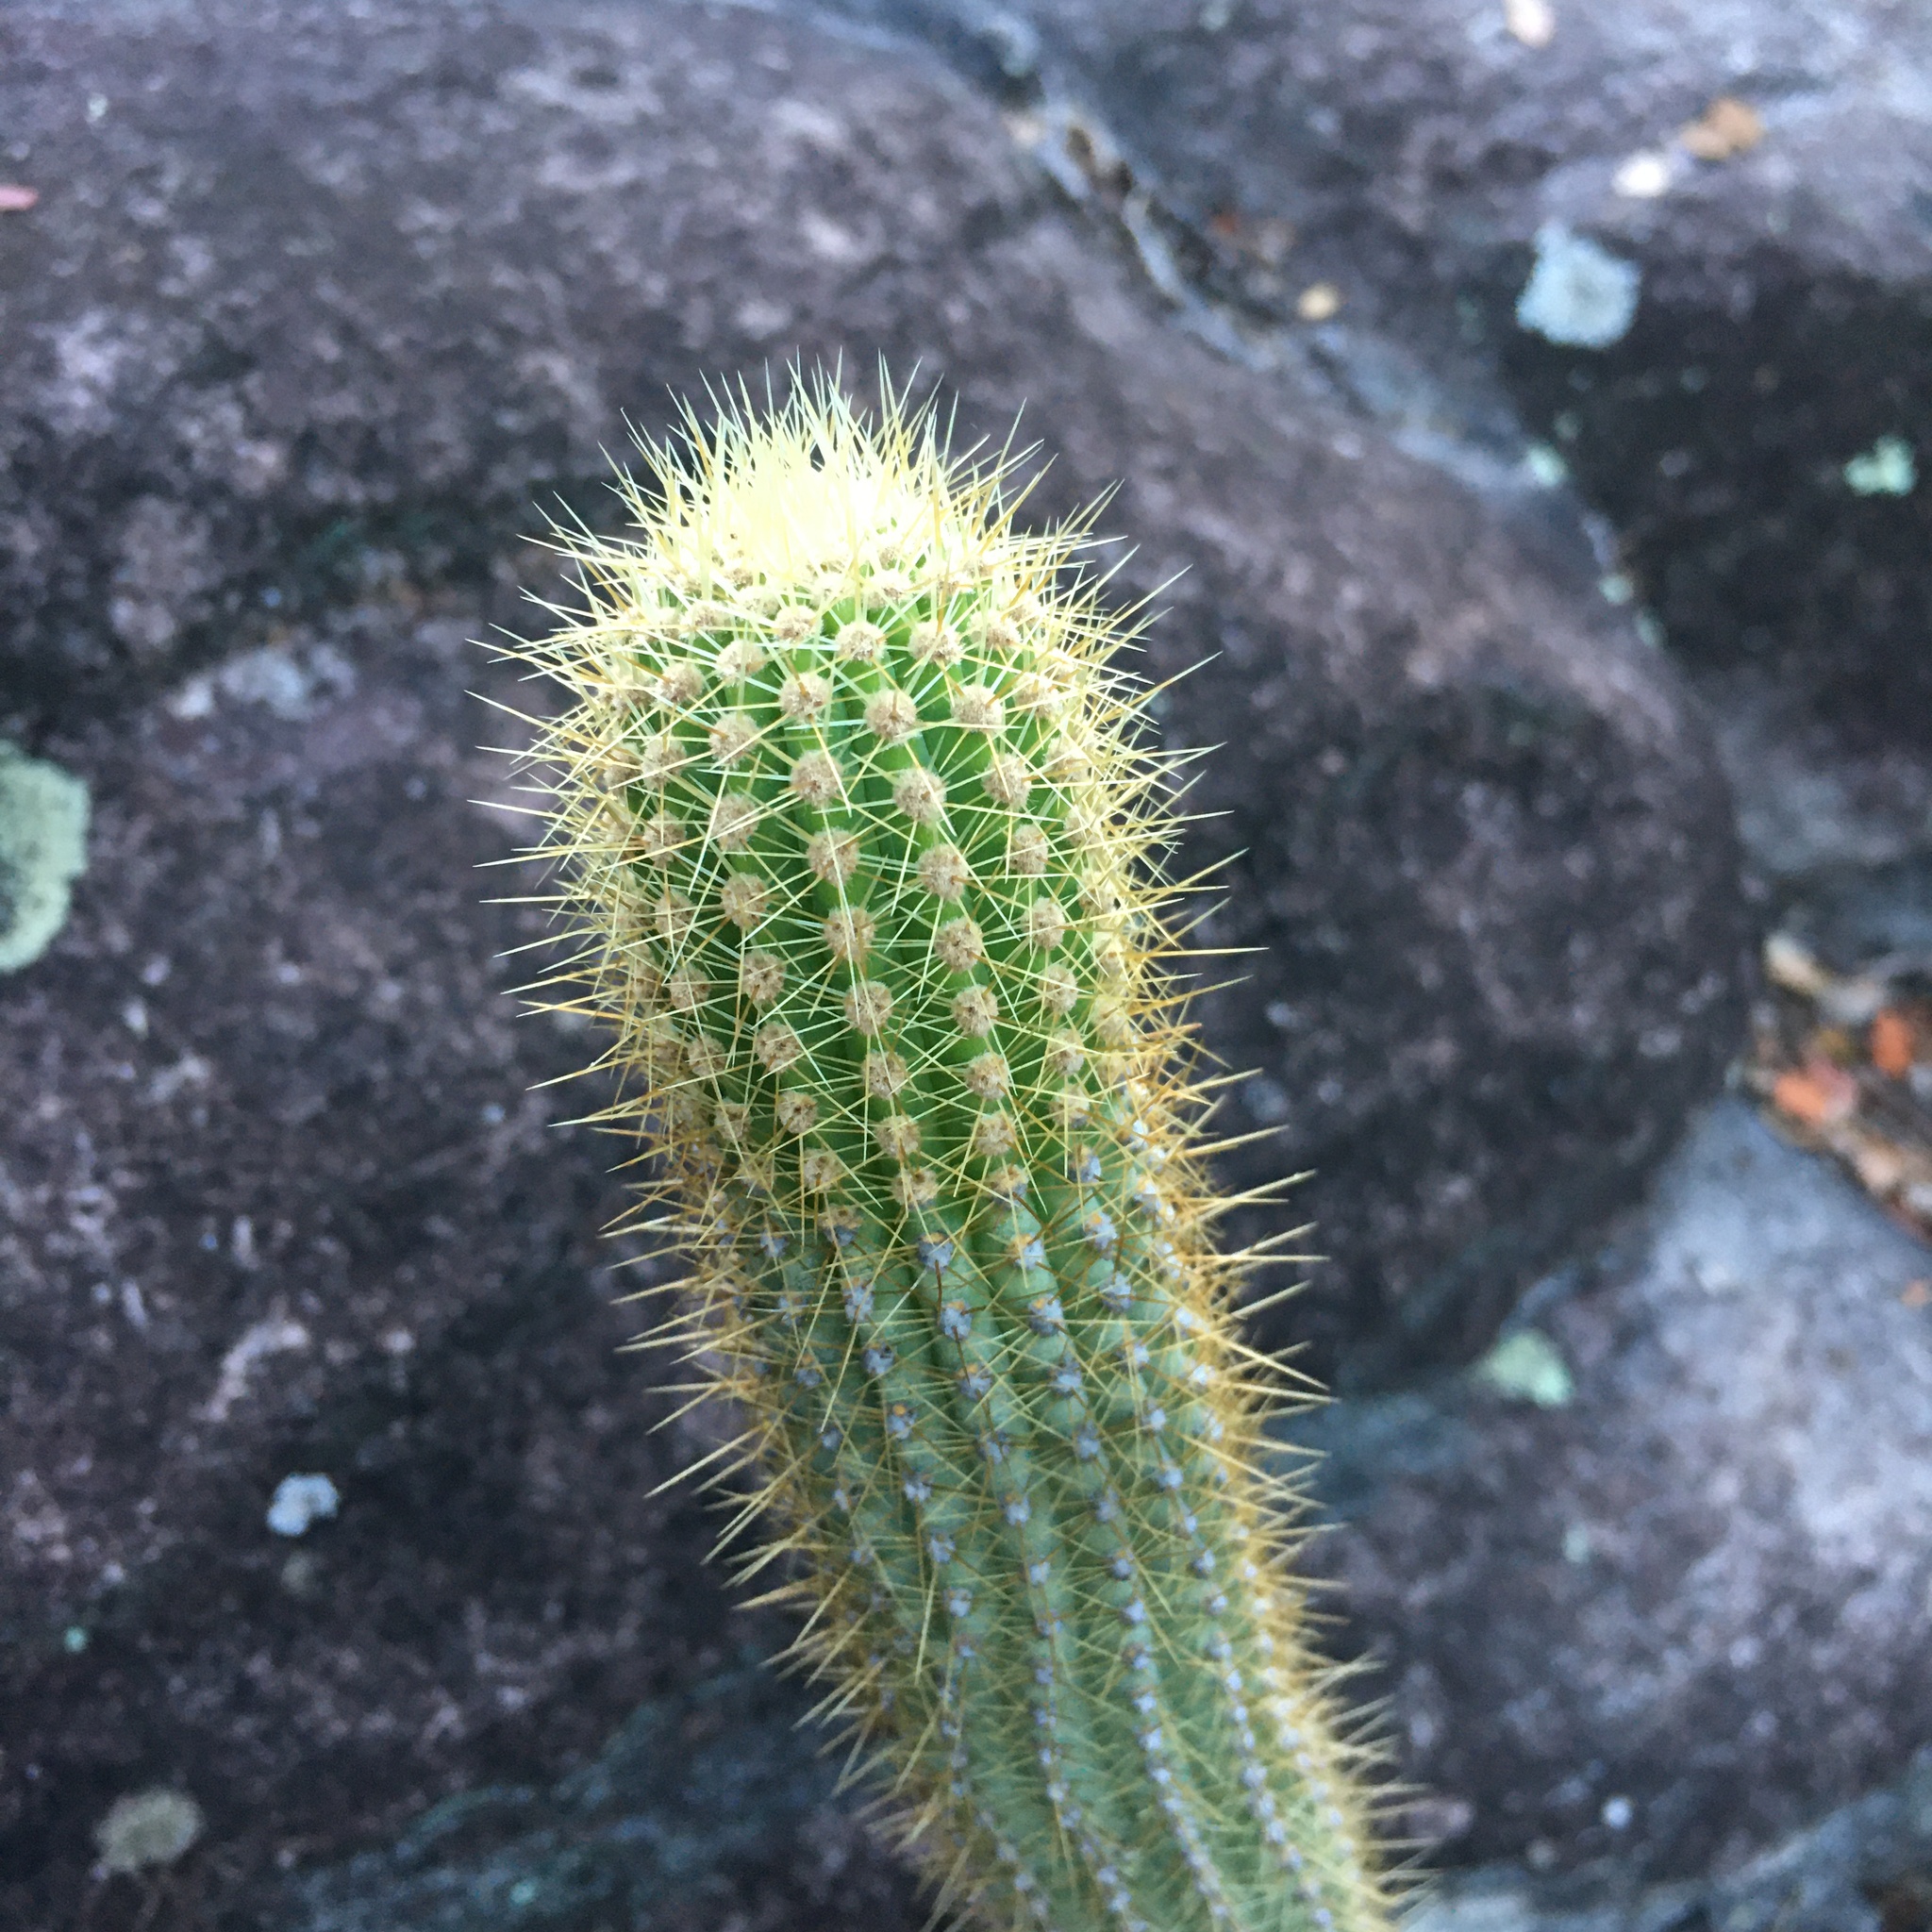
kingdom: Plantae
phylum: Tracheophyta
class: Magnoliopsida
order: Caryophyllales
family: Cactaceae
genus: Cipocereus
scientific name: Cipocereus minensis
